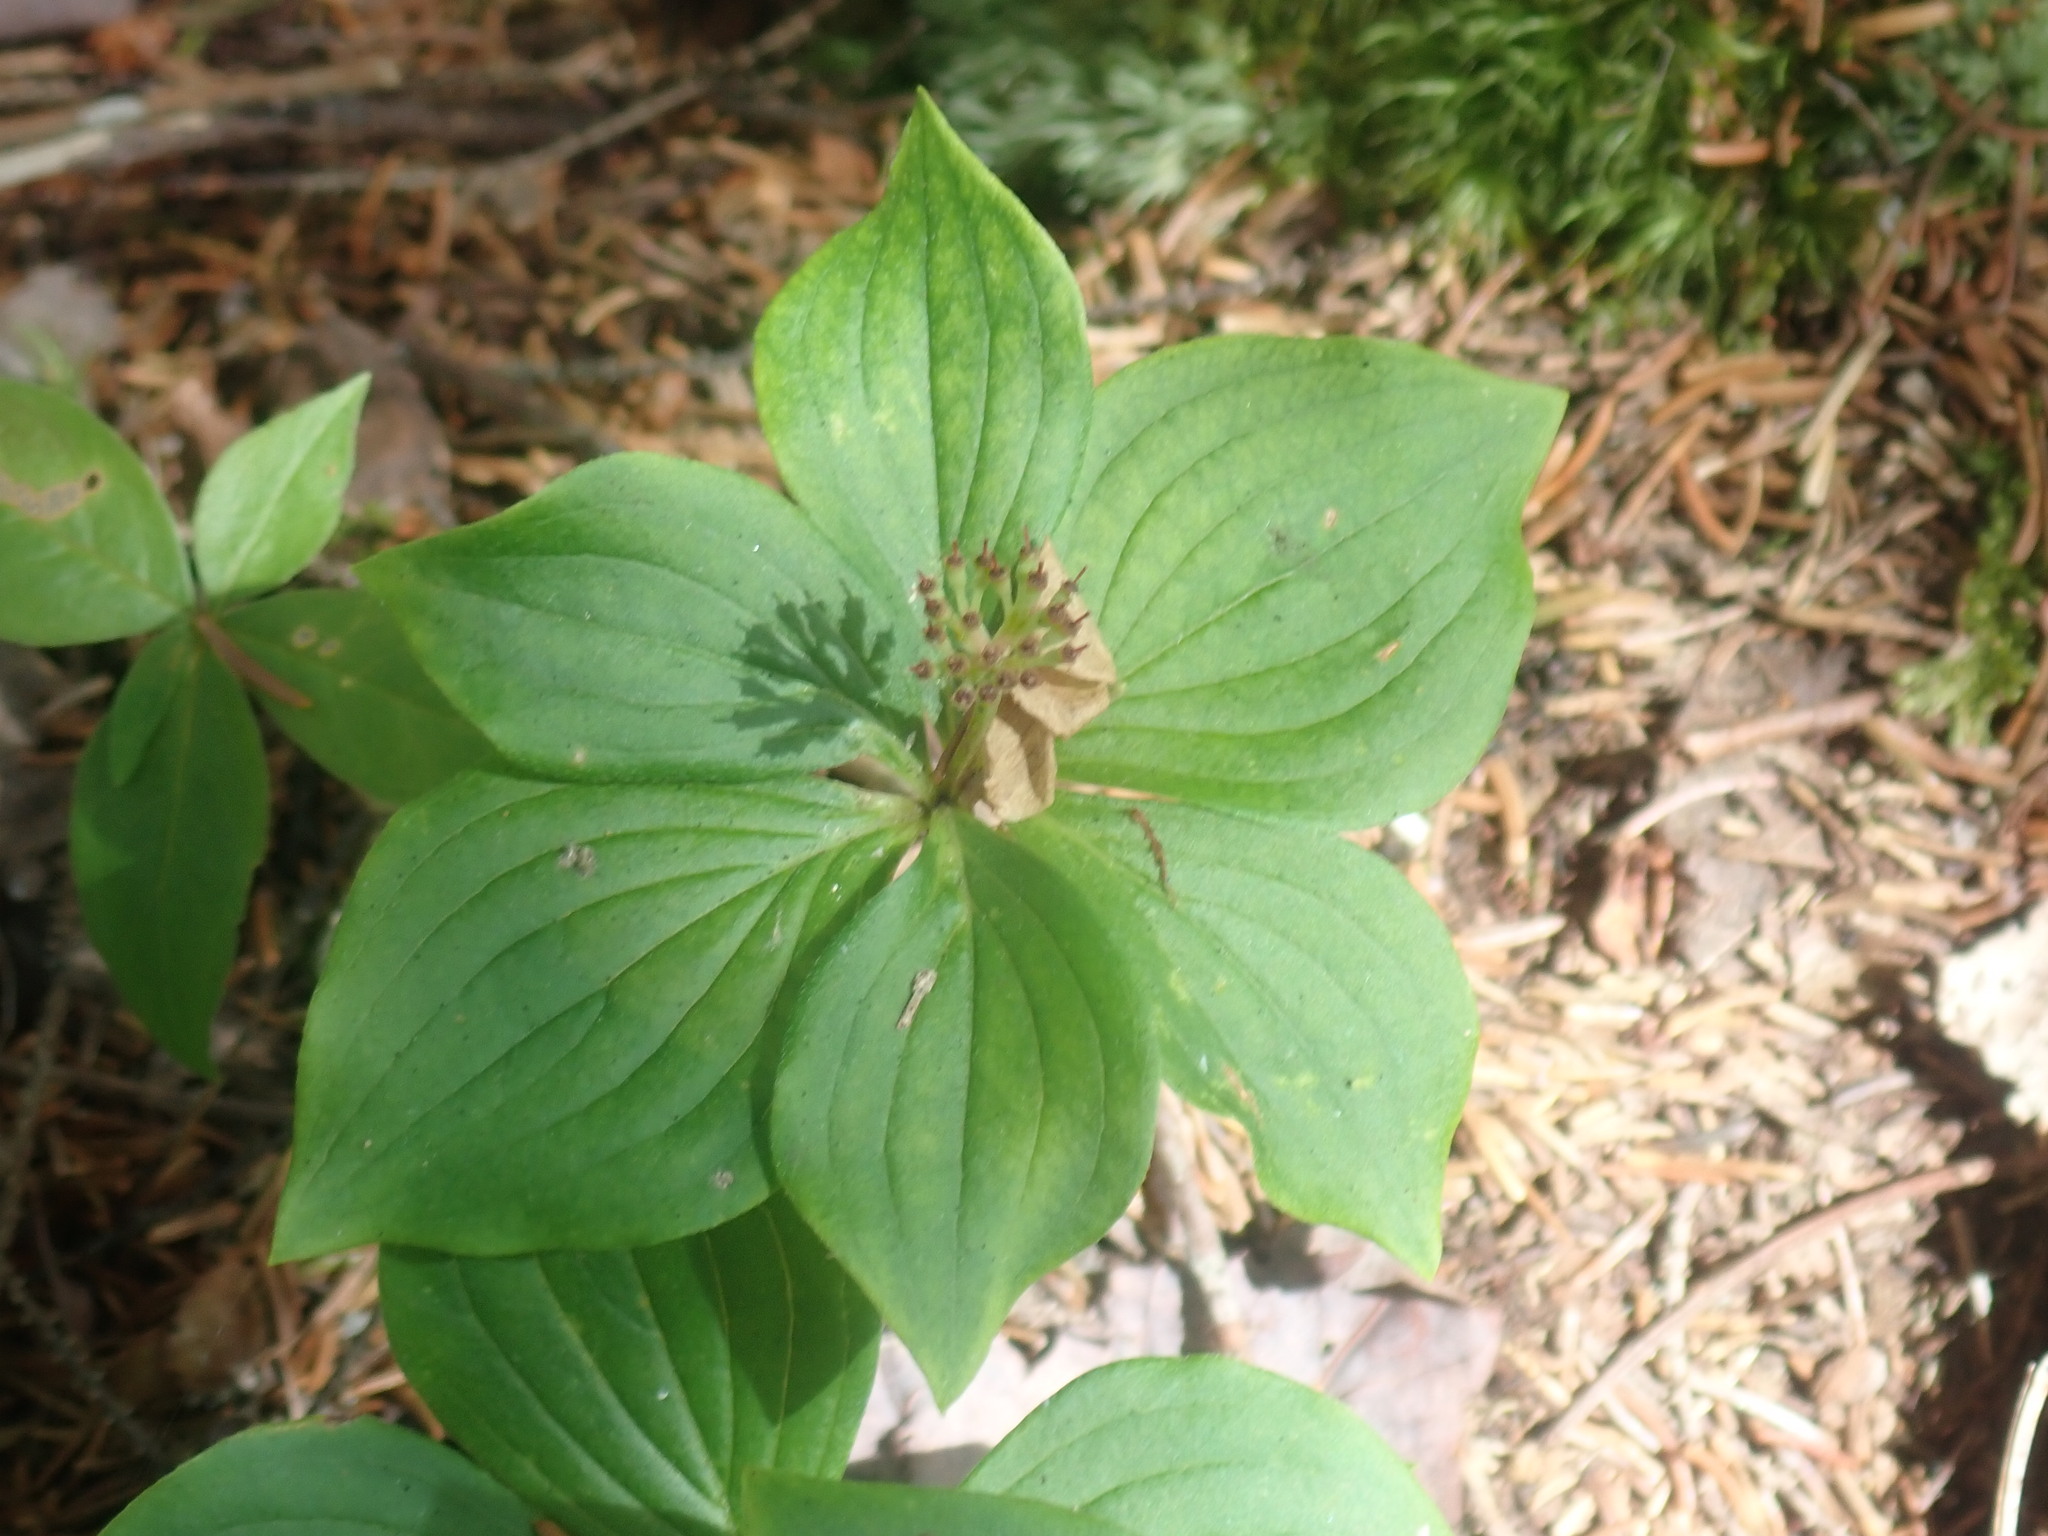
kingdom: Plantae
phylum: Tracheophyta
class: Magnoliopsida
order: Cornales
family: Cornaceae
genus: Cornus
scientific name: Cornus canadensis
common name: Creeping dogwood
